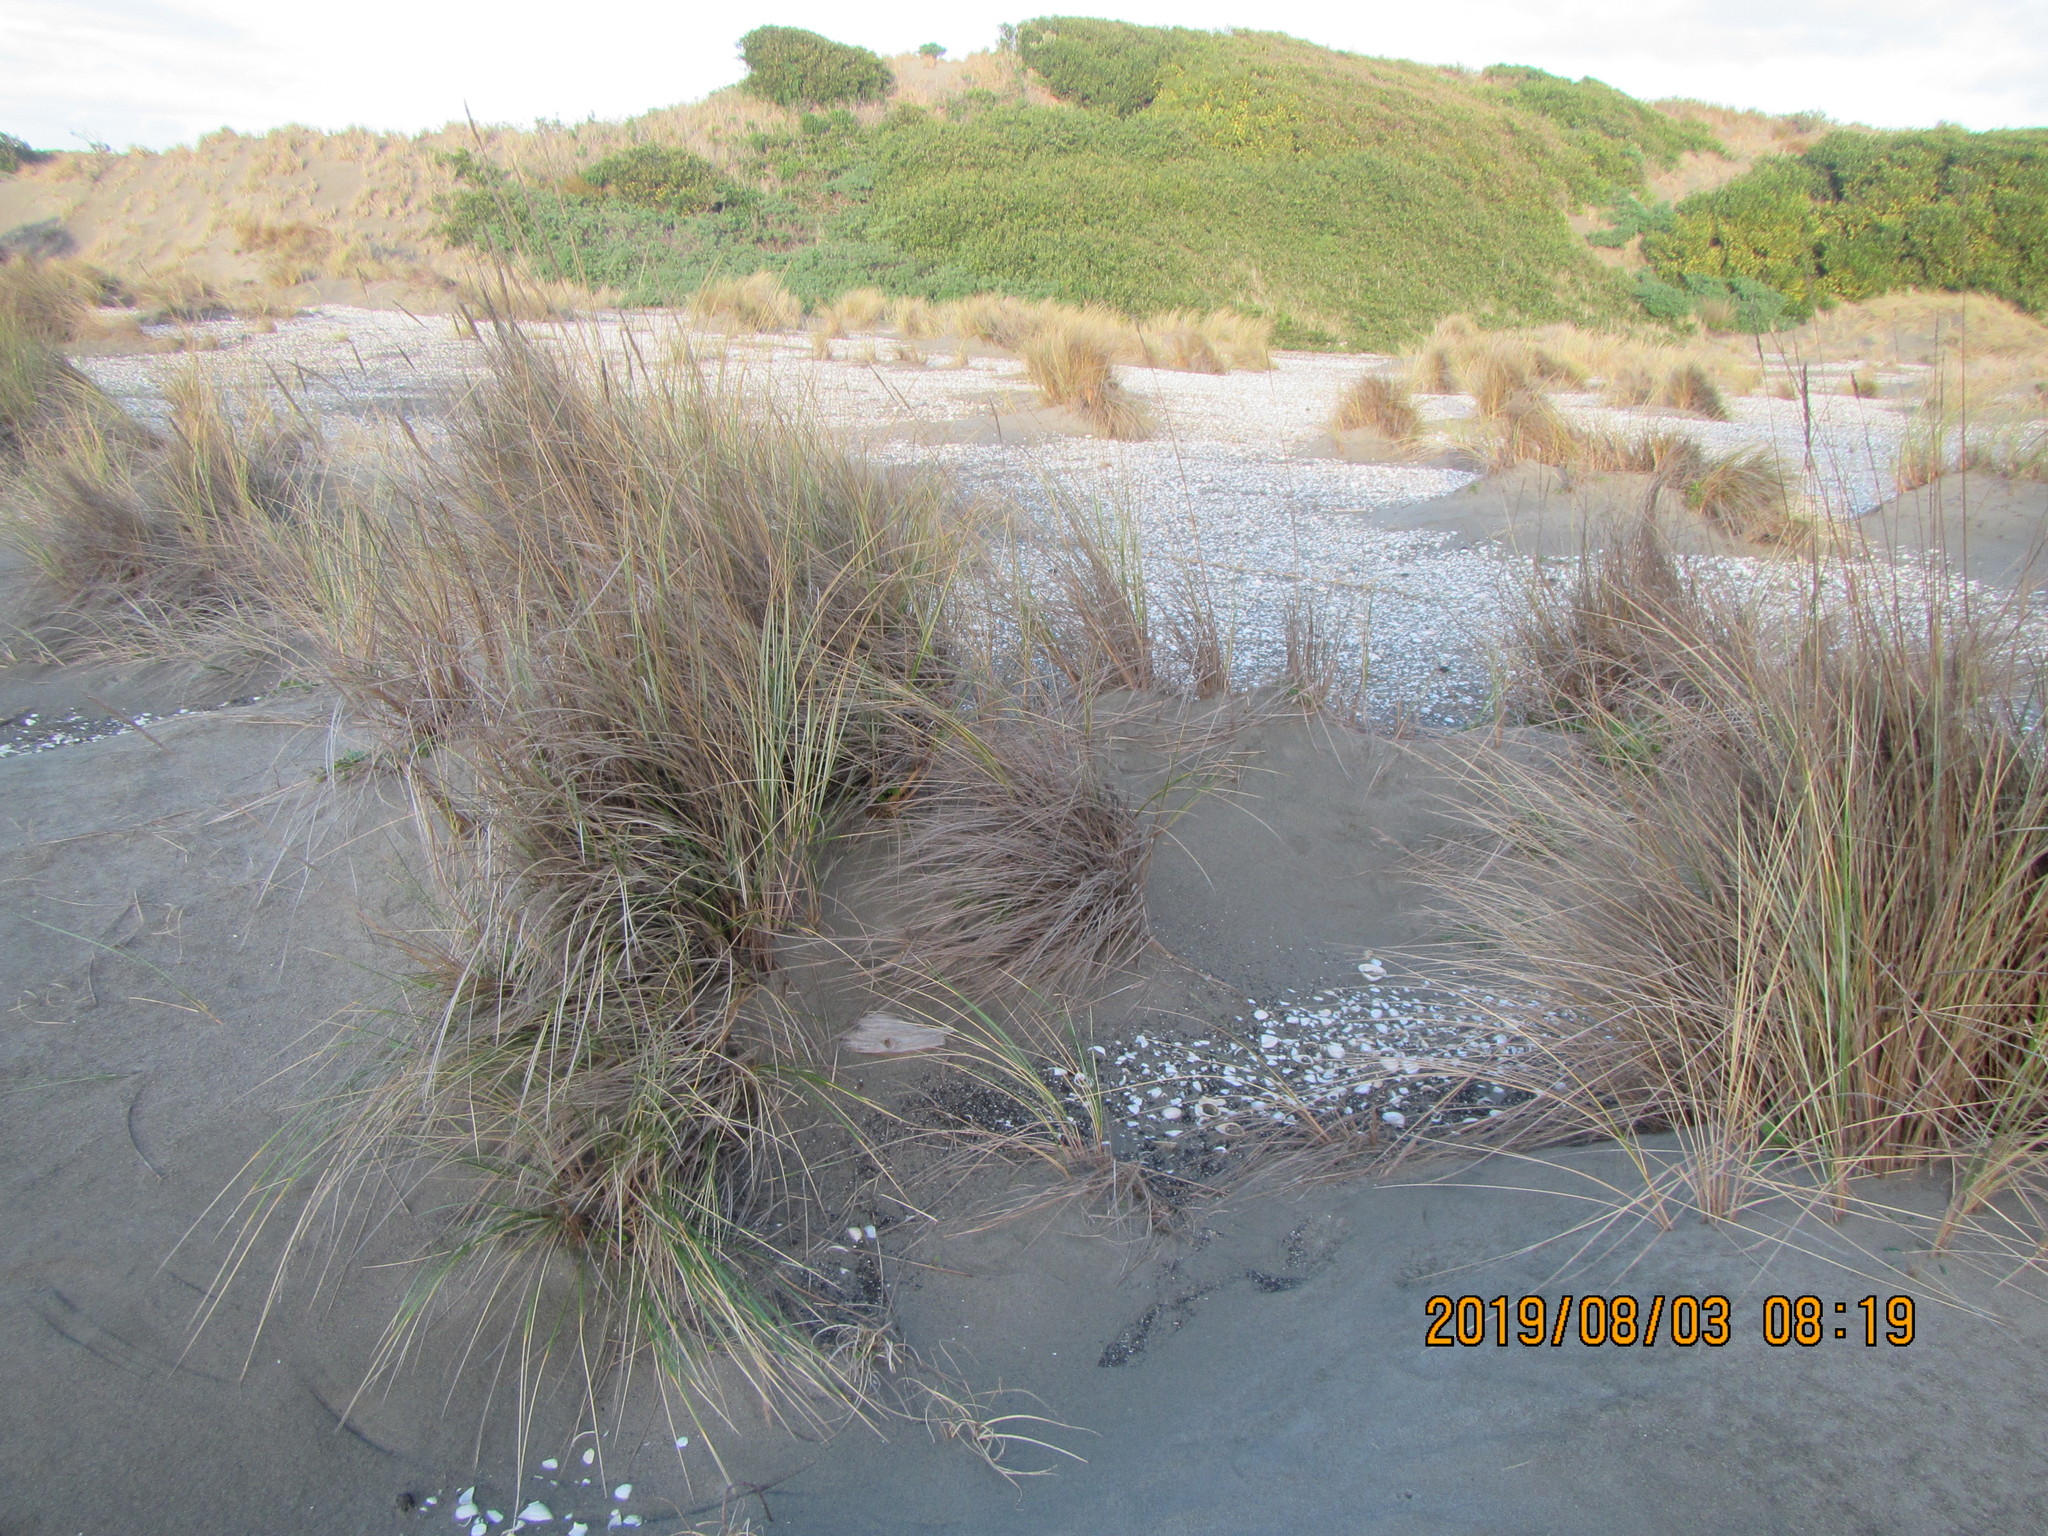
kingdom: Plantae
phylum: Tracheophyta
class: Liliopsida
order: Poales
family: Poaceae
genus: Calamagrostis
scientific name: Calamagrostis arenaria
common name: European beachgrass
